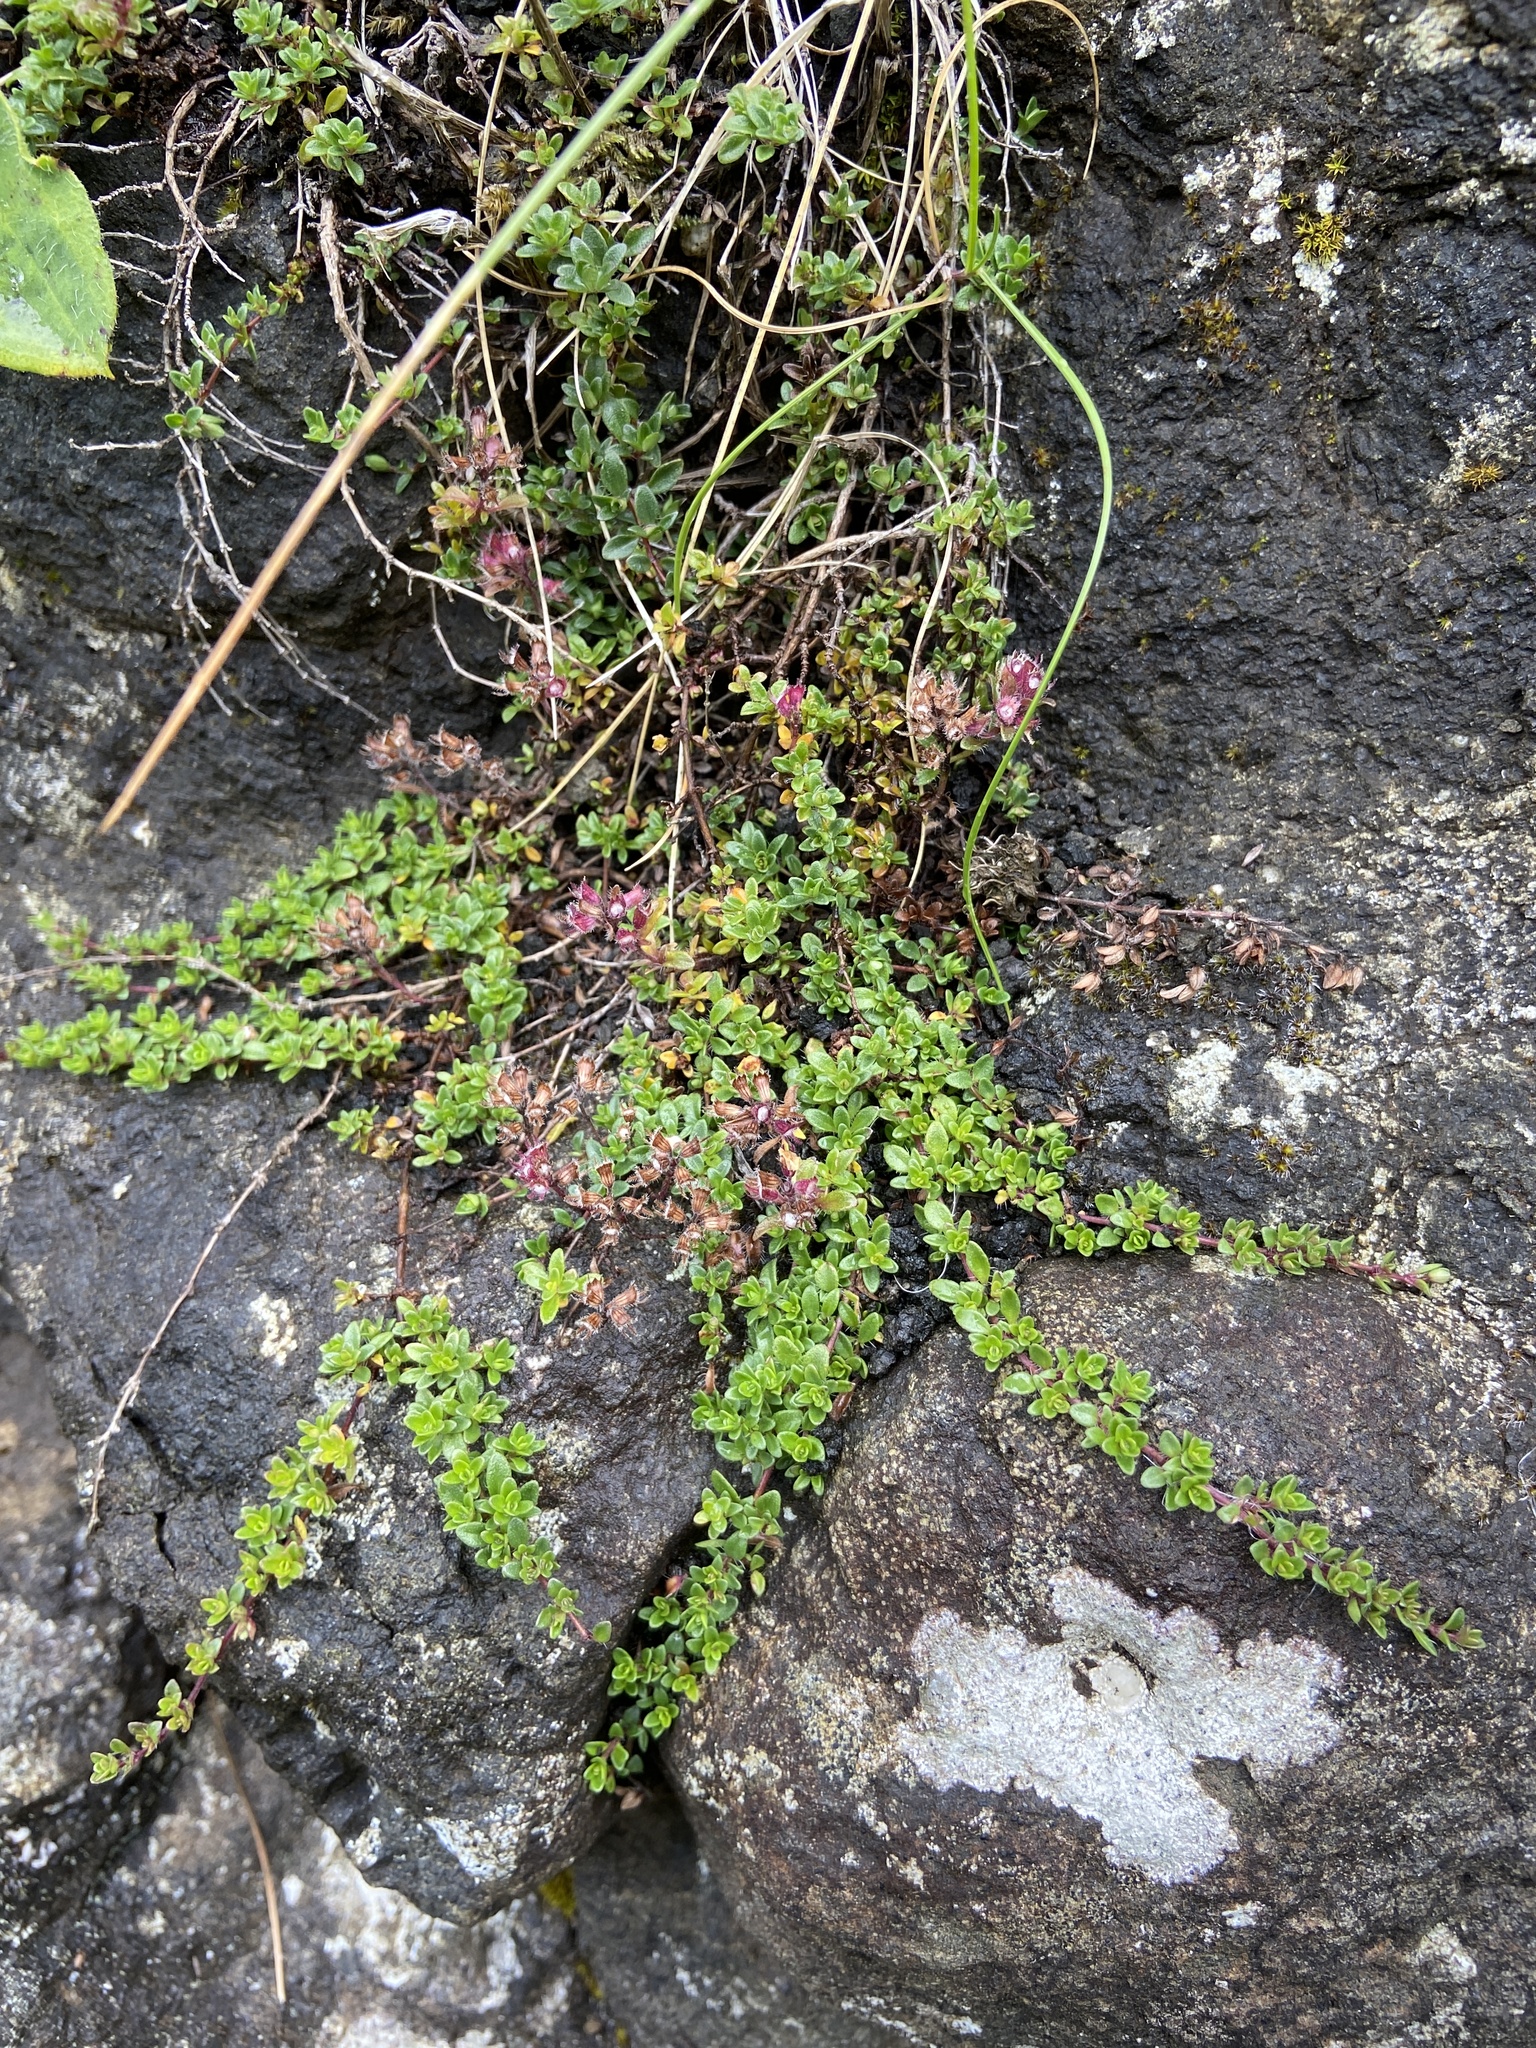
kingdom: Plantae
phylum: Tracheophyta
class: Magnoliopsida
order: Lamiales
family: Lamiaceae
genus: Thymus
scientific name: Thymus praecox
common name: Wild thyme
